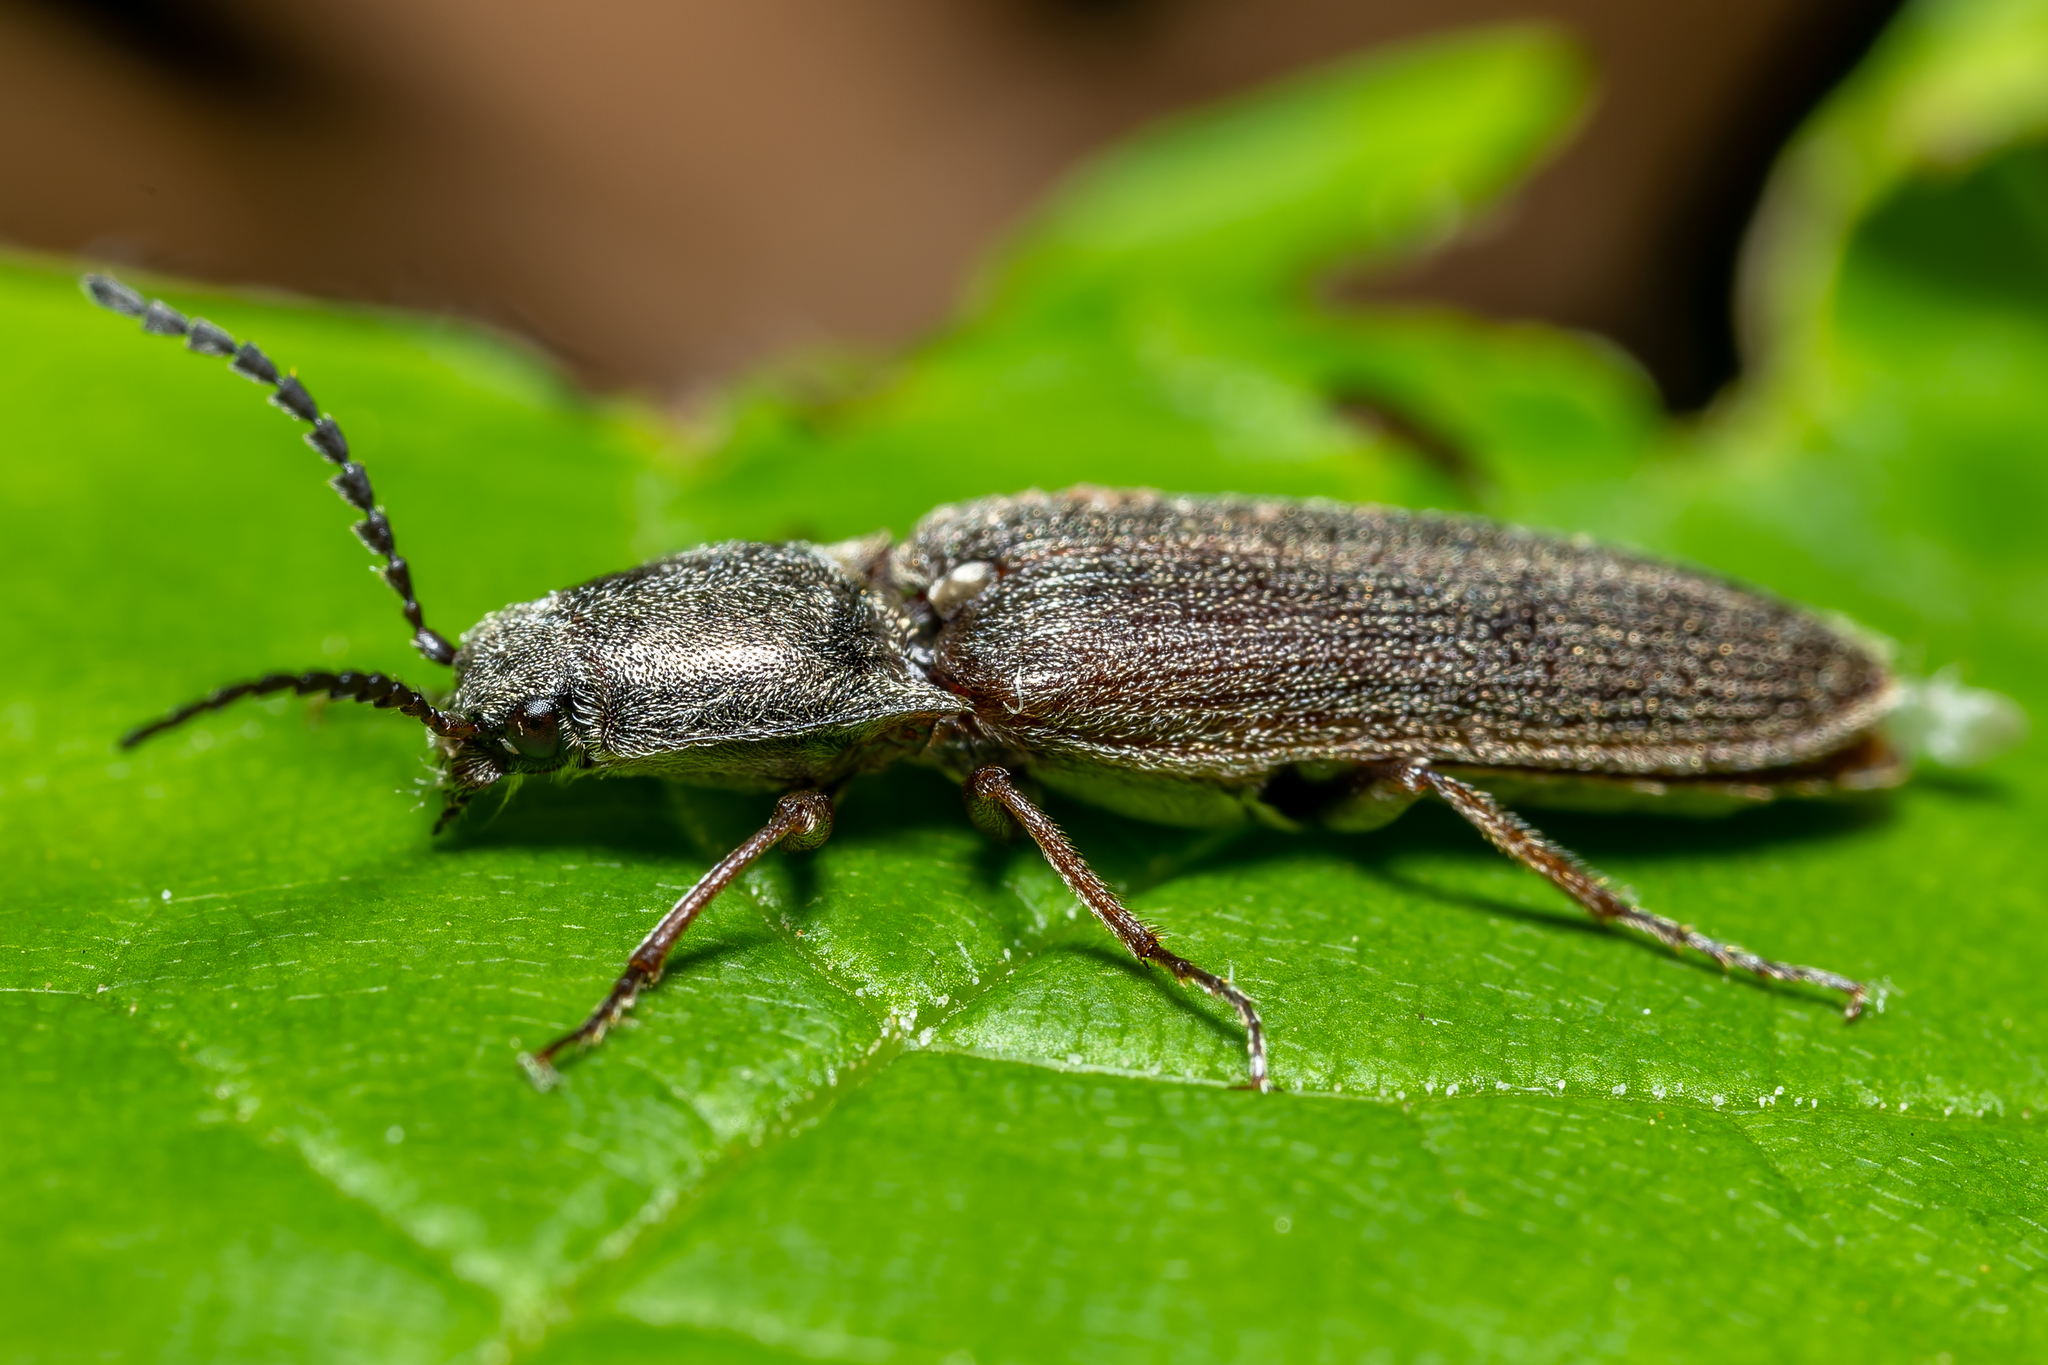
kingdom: Animalia
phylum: Arthropoda
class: Insecta
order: Coleoptera
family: Elateridae
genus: Sylvanelater
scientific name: Sylvanelater cylindriformis
